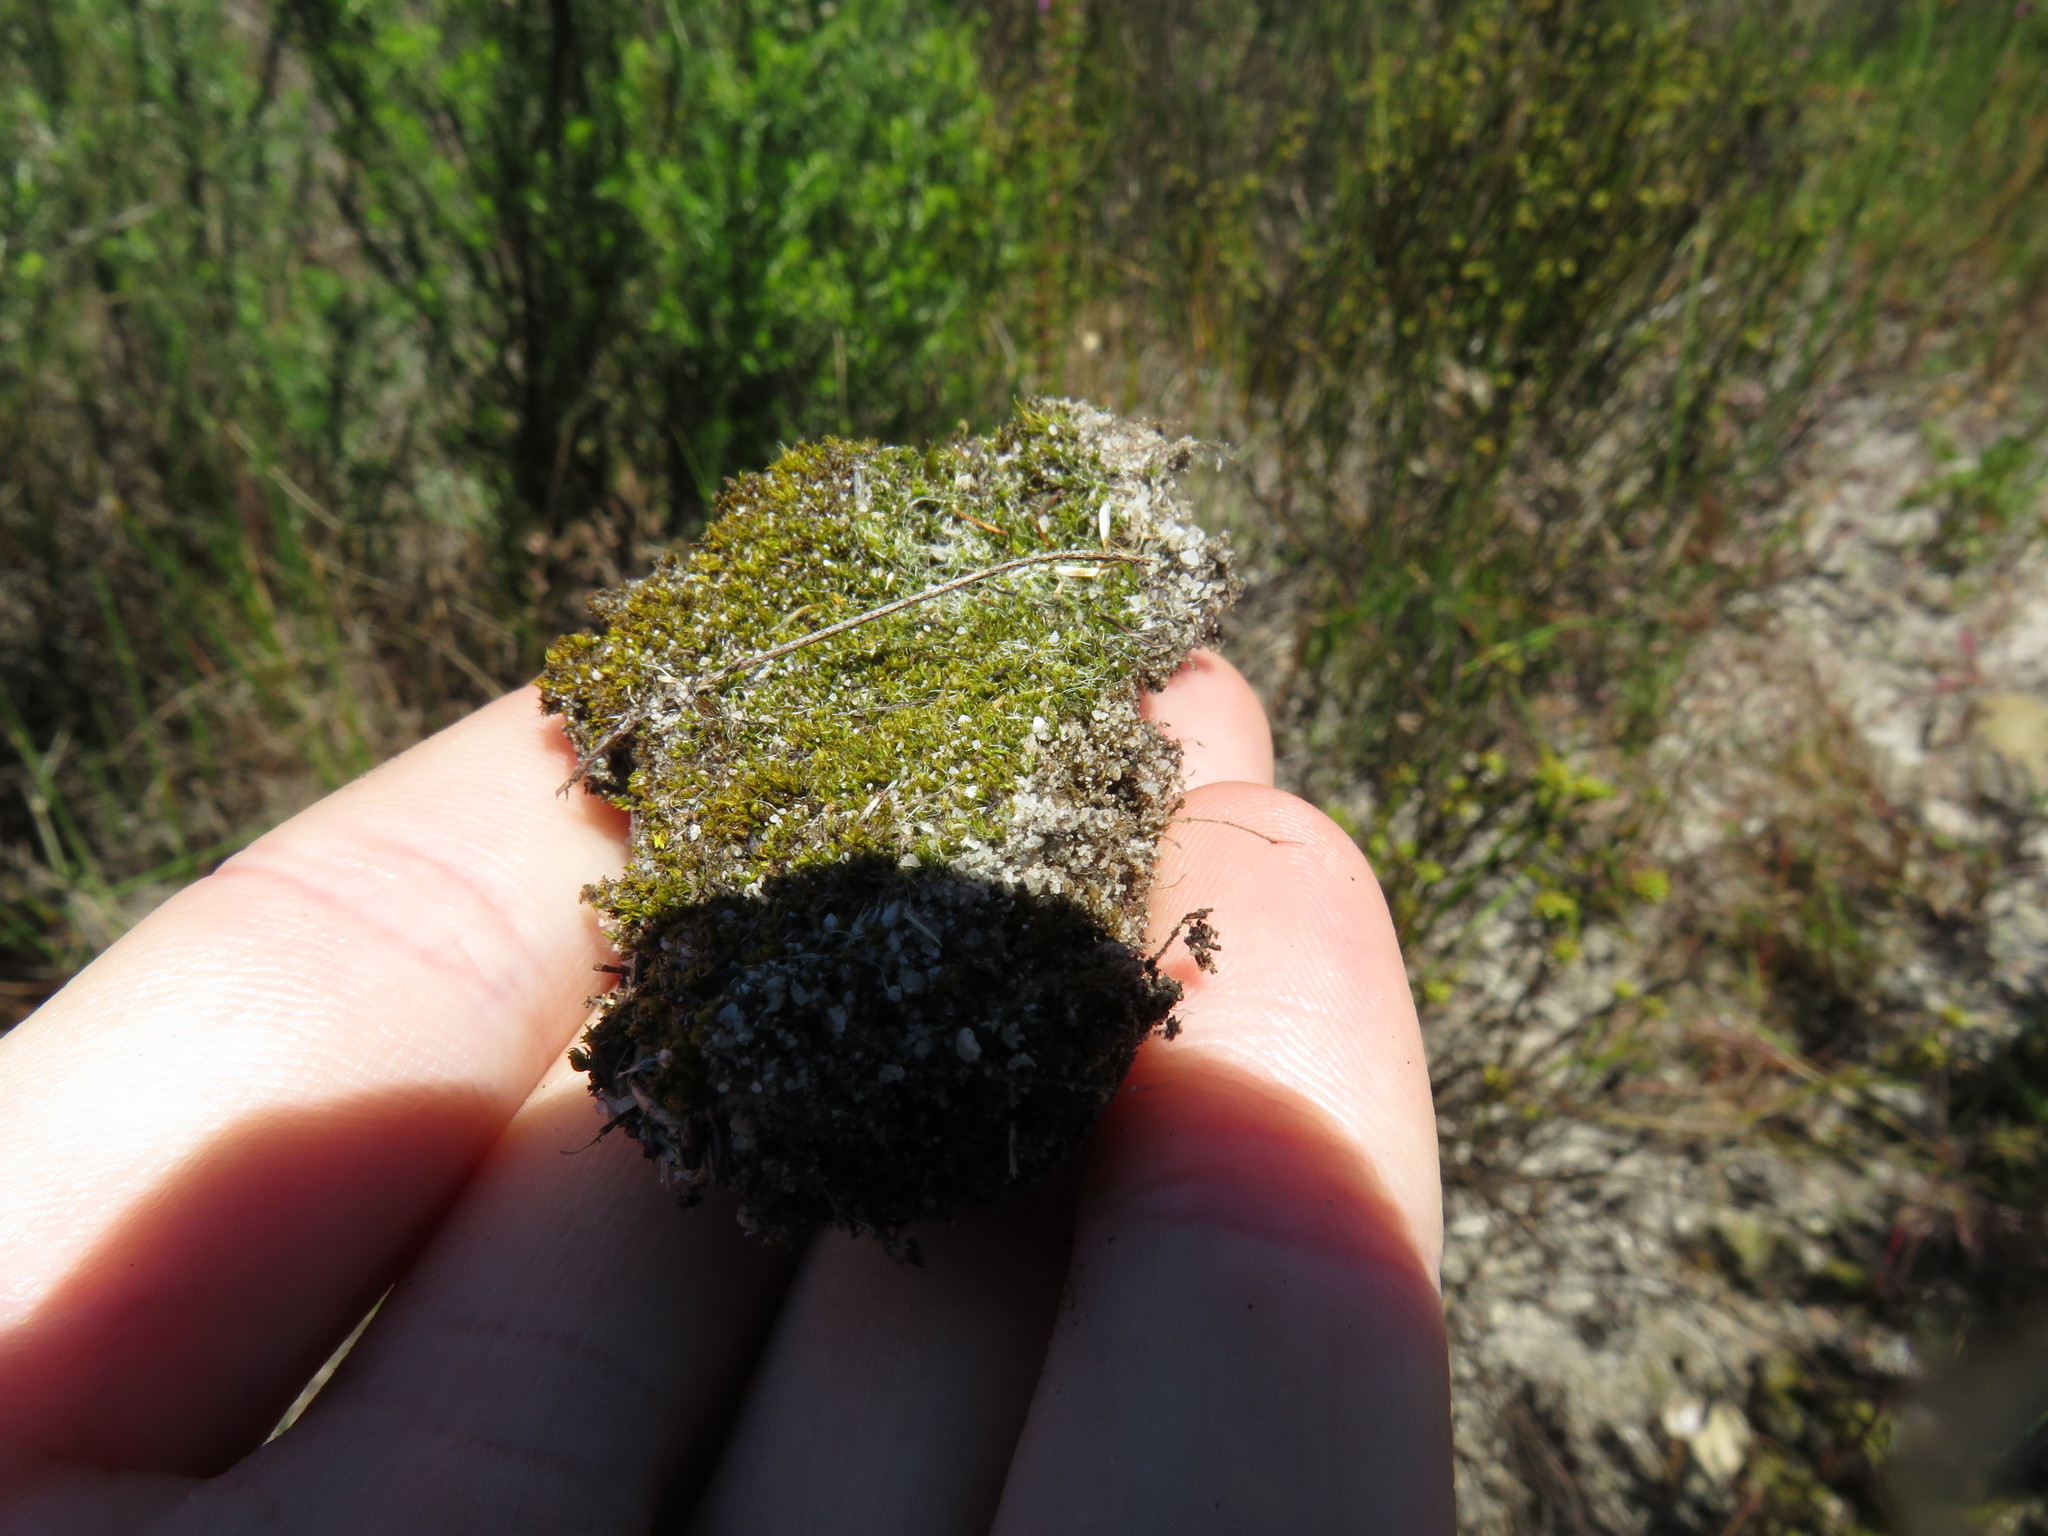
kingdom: Plantae
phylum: Bryophyta
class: Bryopsida
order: Dicranales
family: Leucobryaceae
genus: Campylopus
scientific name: Campylopus introflexus
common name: Heath star moss
